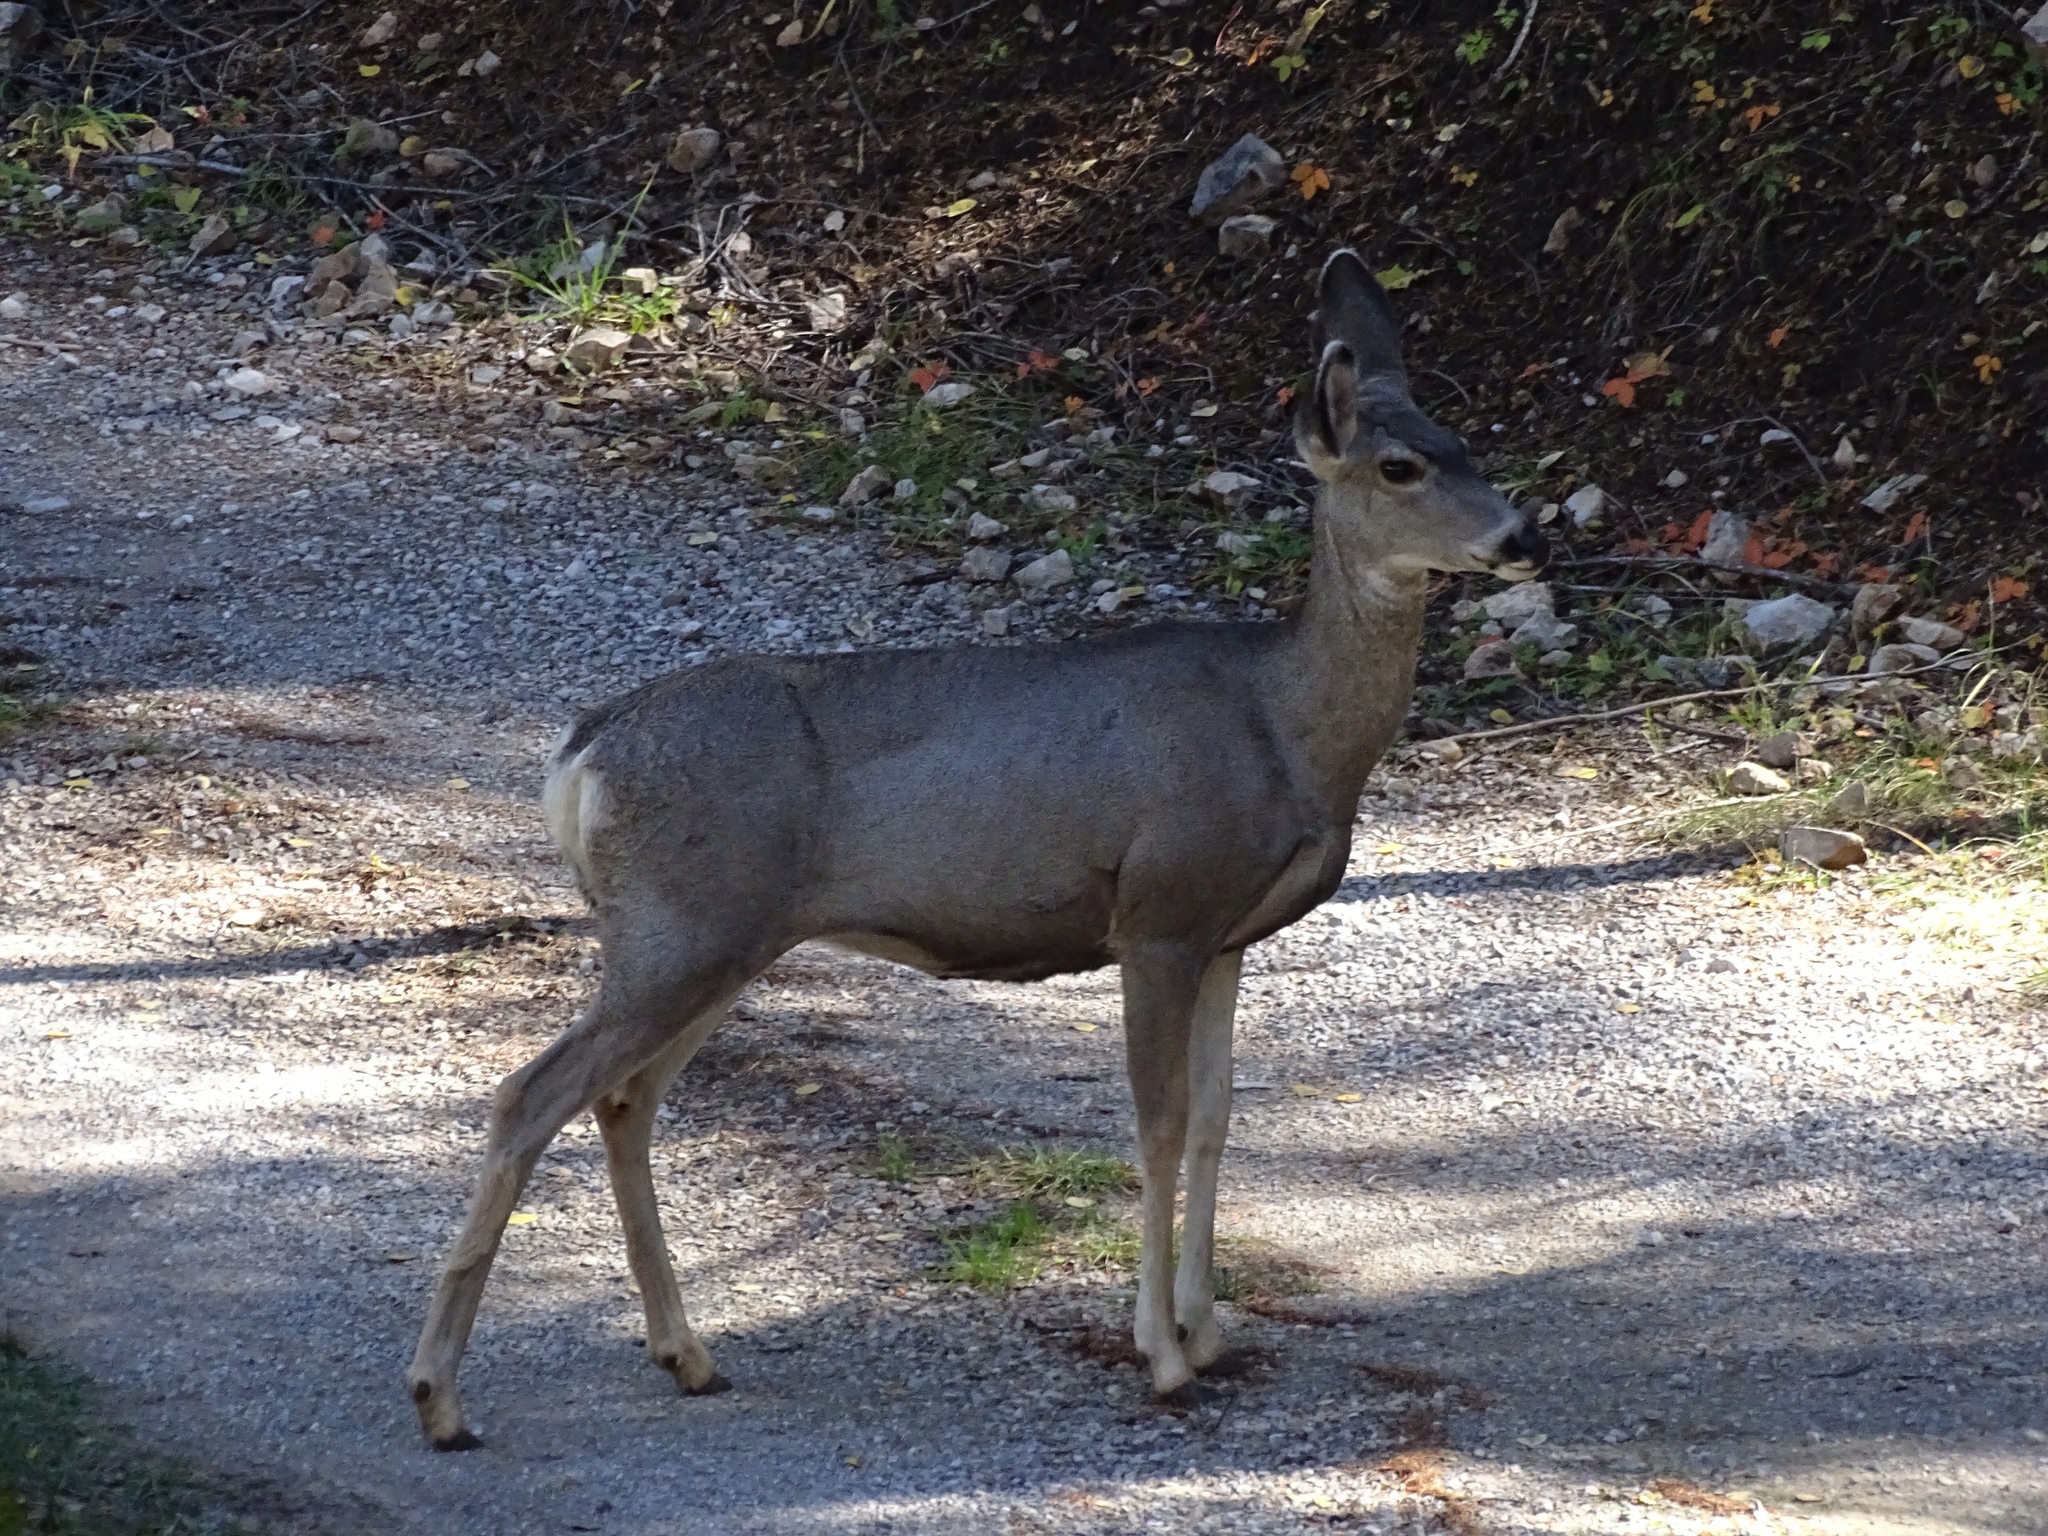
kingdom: Animalia
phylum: Chordata
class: Mammalia
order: Artiodactyla
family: Cervidae
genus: Odocoileus
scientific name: Odocoileus hemionus
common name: Mule deer
